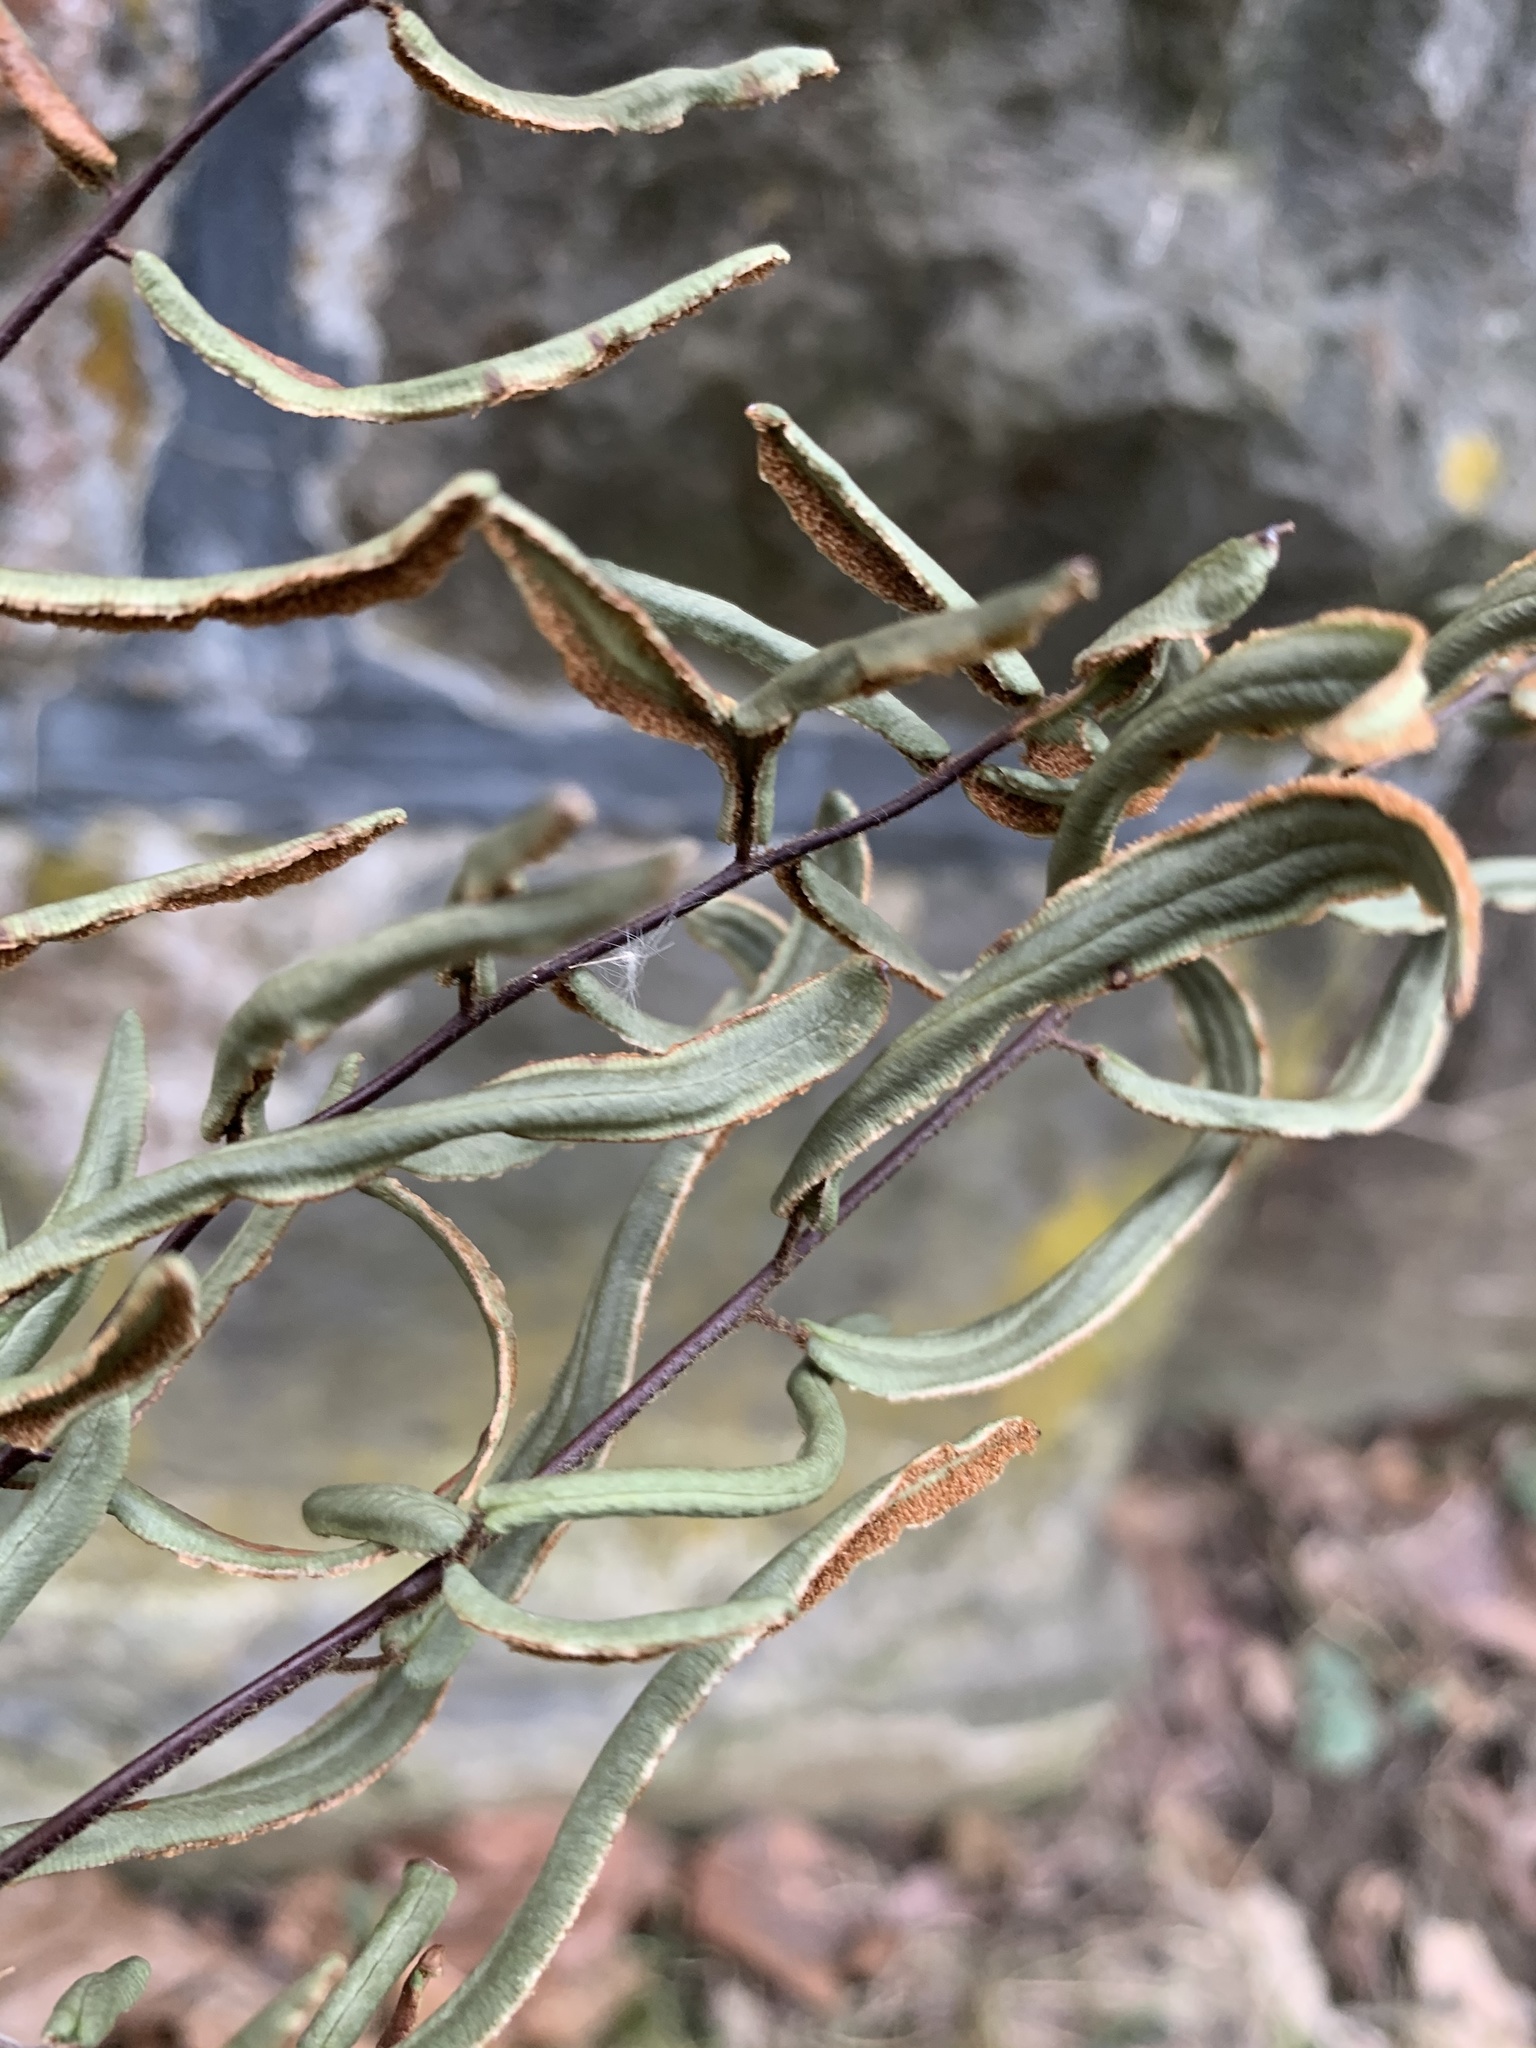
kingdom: Plantae
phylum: Tracheophyta
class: Polypodiopsida
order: Polypodiales
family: Pteridaceae
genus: Pellaea
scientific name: Pellaea atropurpurea
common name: Hairy cliffbrake
